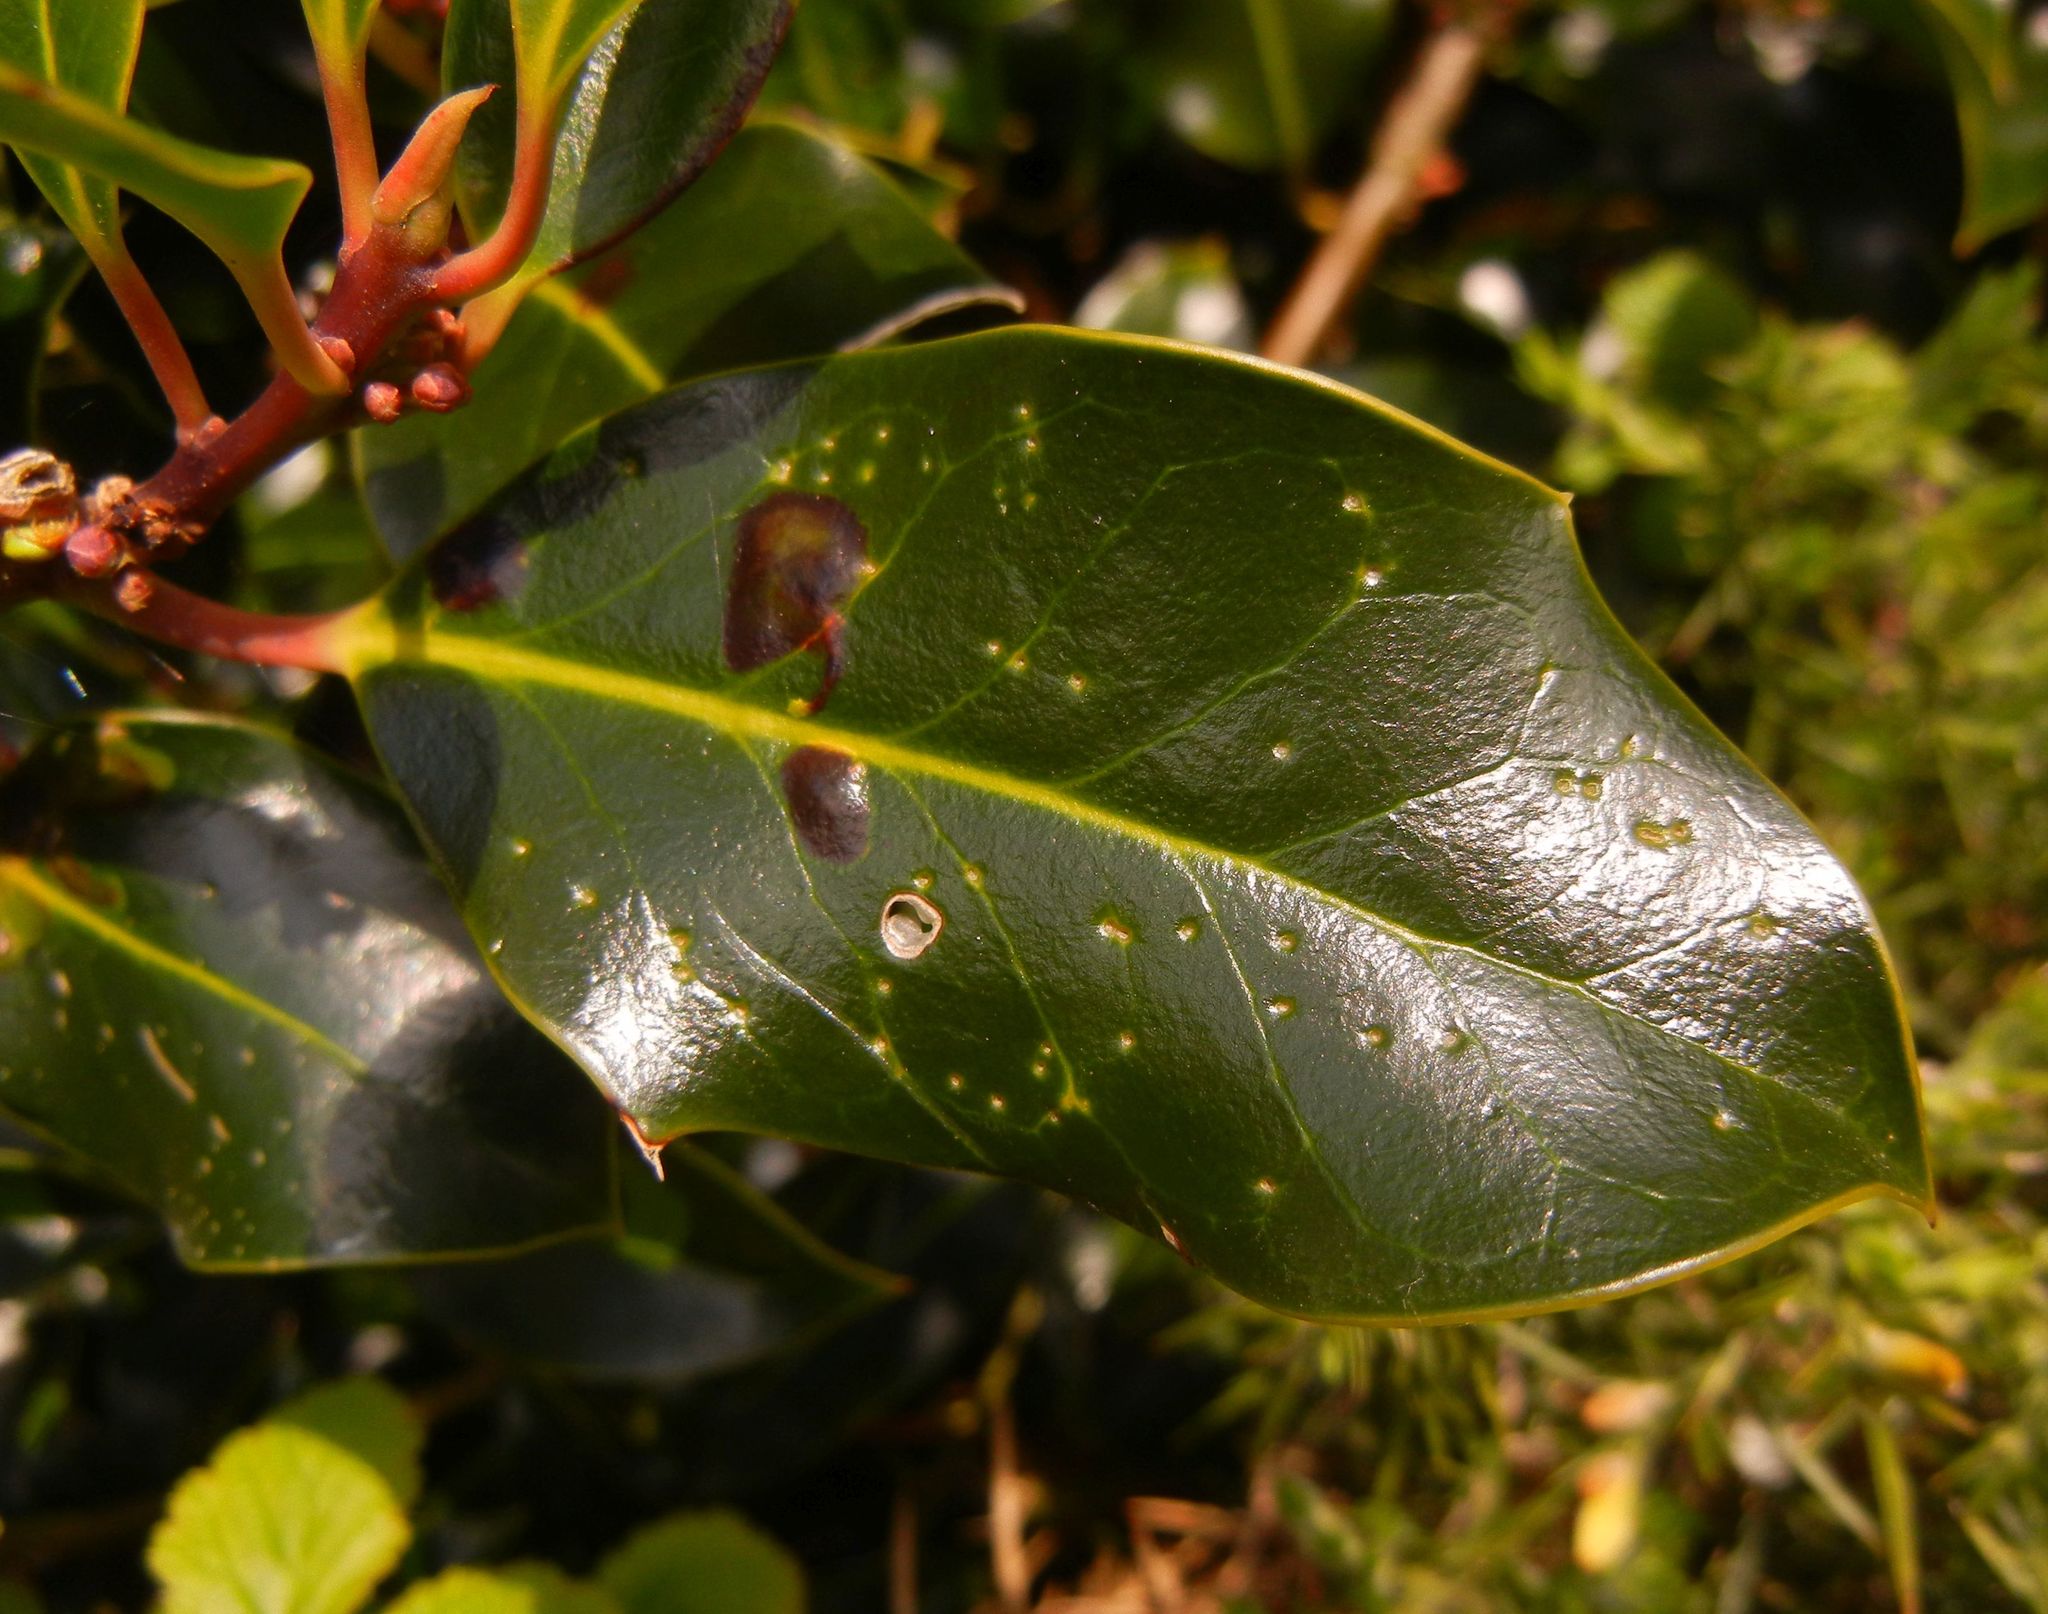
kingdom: Plantae
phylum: Tracheophyta
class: Magnoliopsida
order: Aquifoliales
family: Aquifoliaceae
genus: Ilex
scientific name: Ilex aquifolium
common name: English holly
